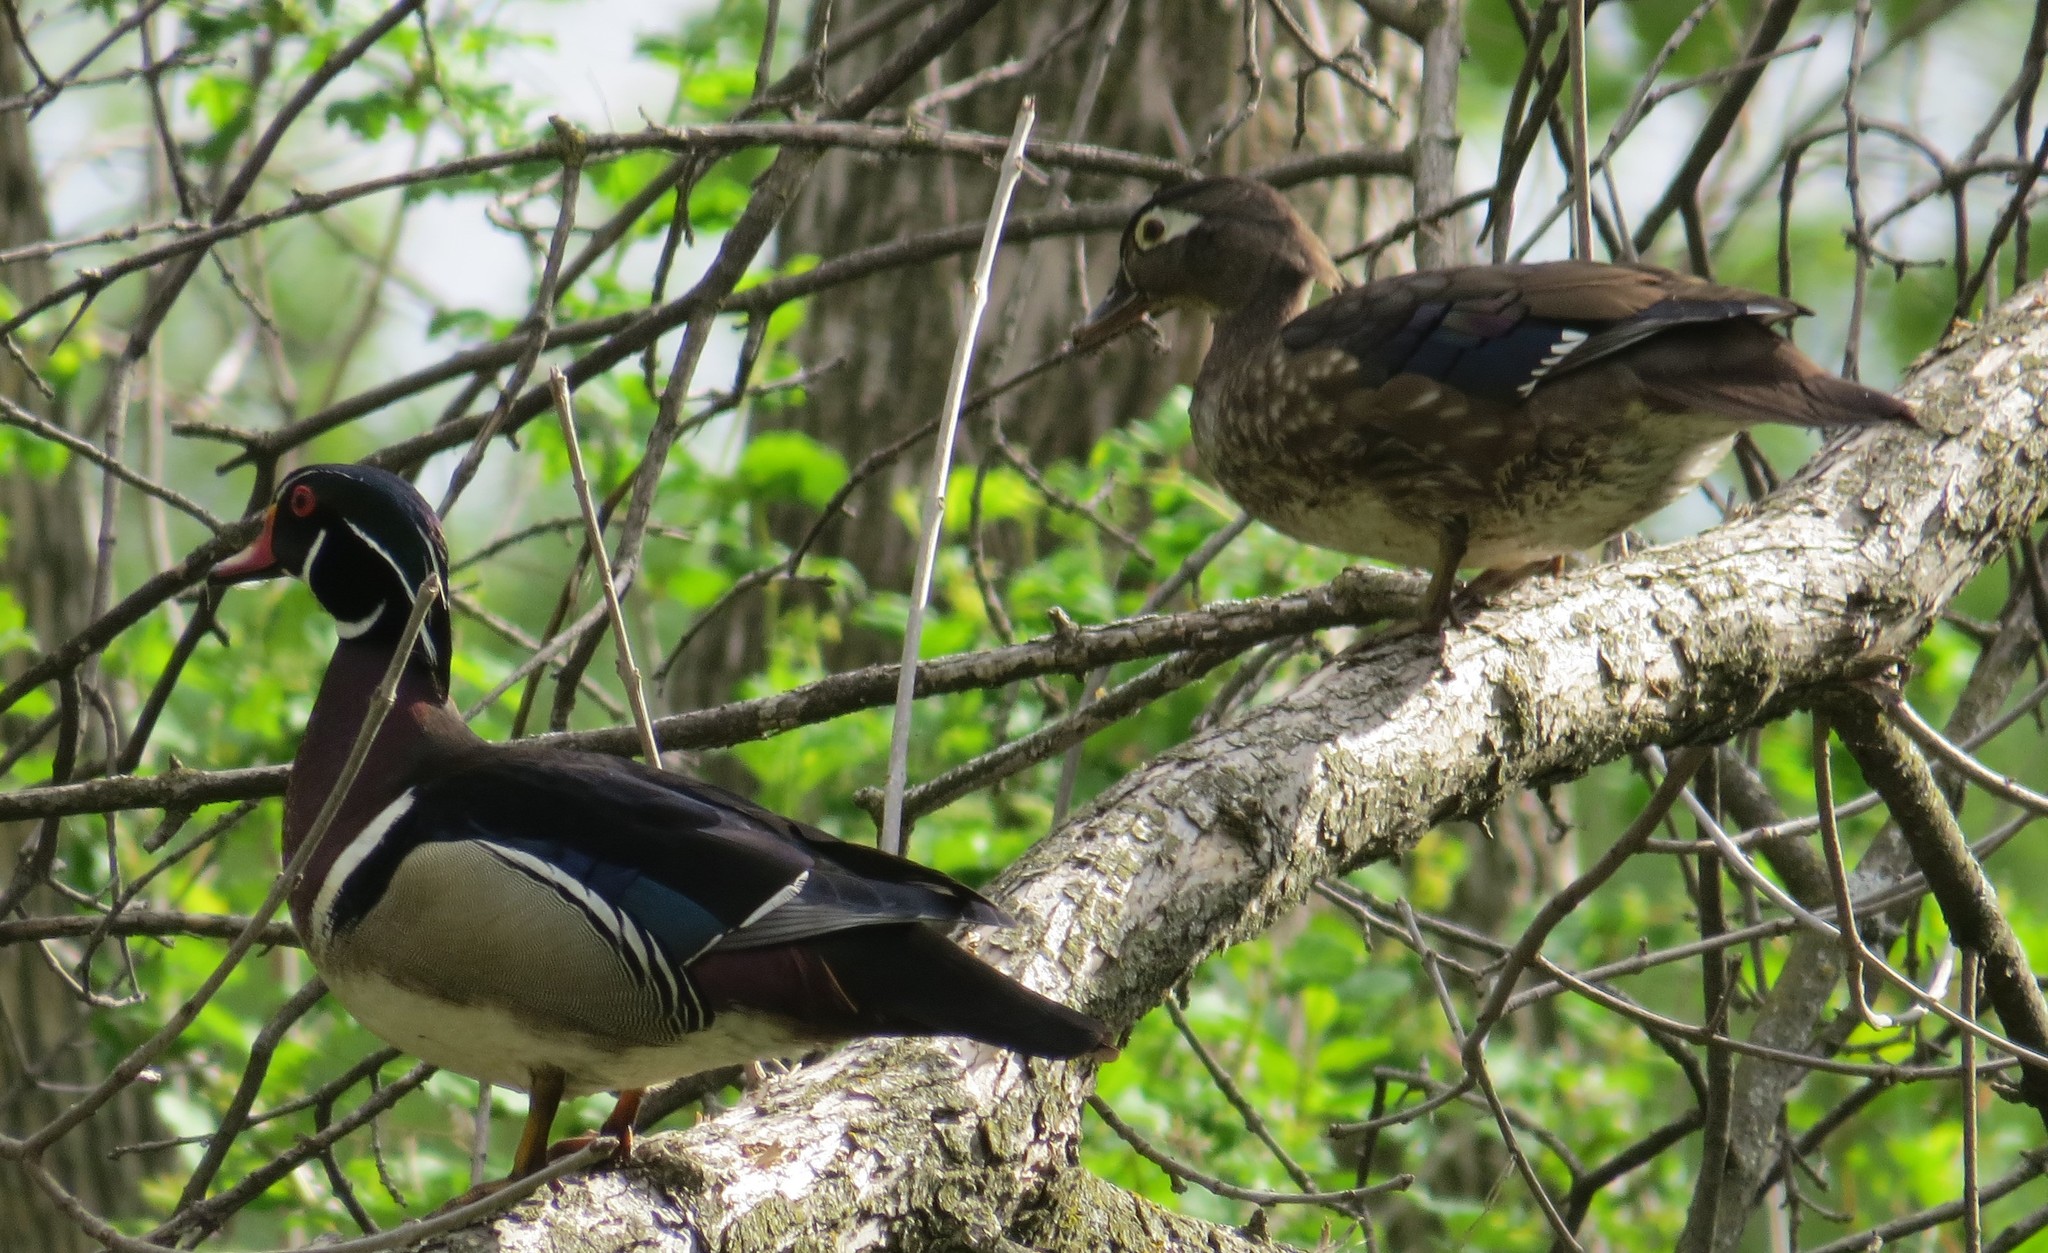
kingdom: Animalia
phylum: Chordata
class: Aves
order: Anseriformes
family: Anatidae
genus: Aix
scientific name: Aix sponsa
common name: Wood duck
